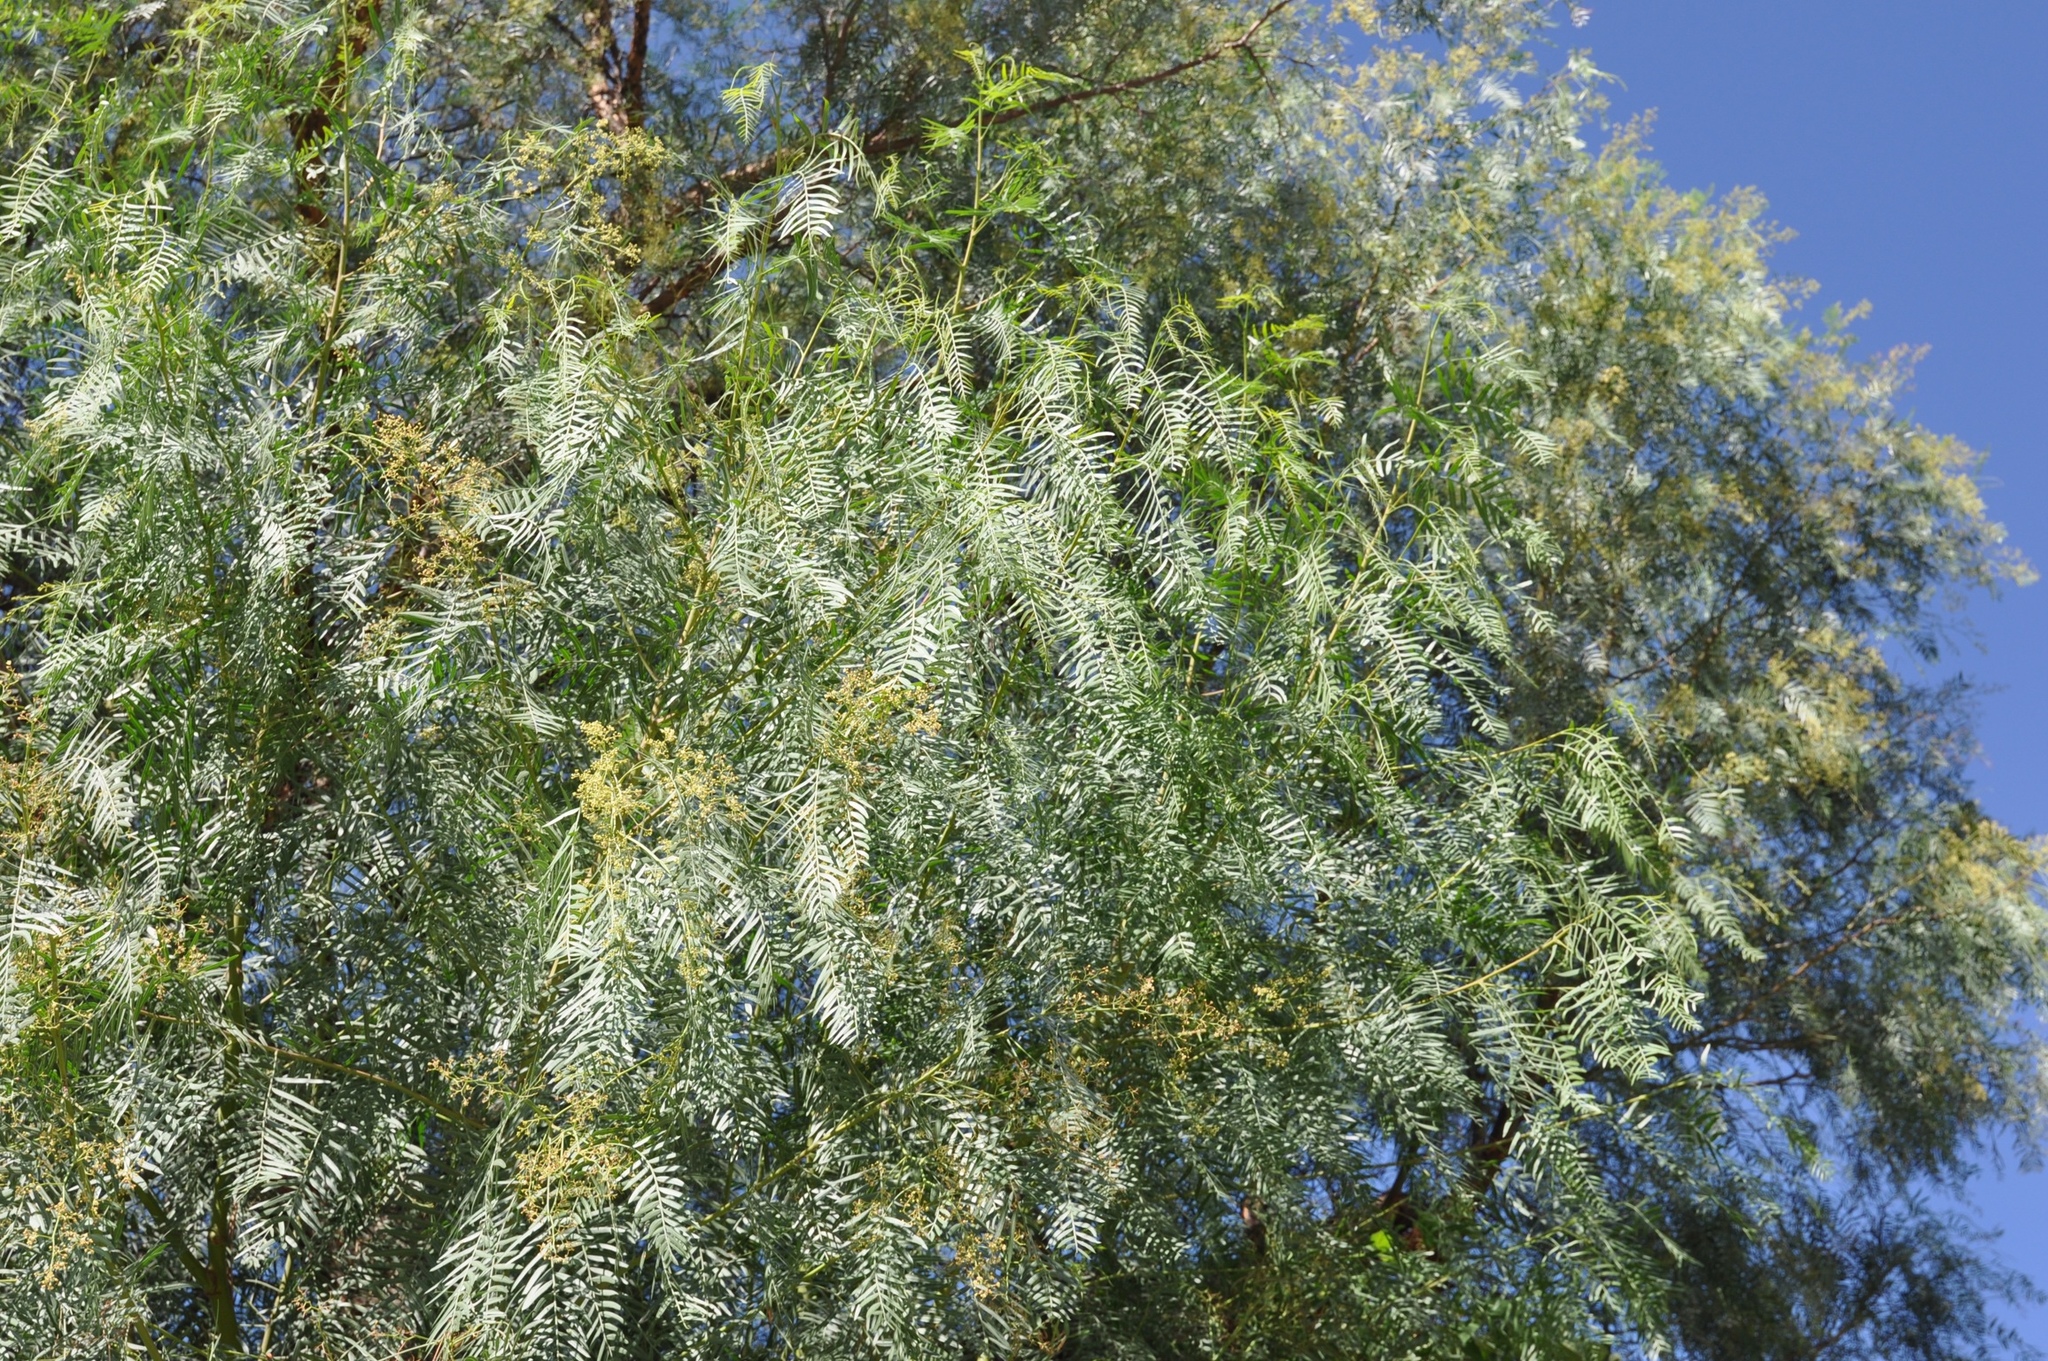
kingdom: Plantae
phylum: Tracheophyta
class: Magnoliopsida
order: Sapindales
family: Anacardiaceae
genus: Schinus
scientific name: Schinus molle
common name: Peruvian peppertree
